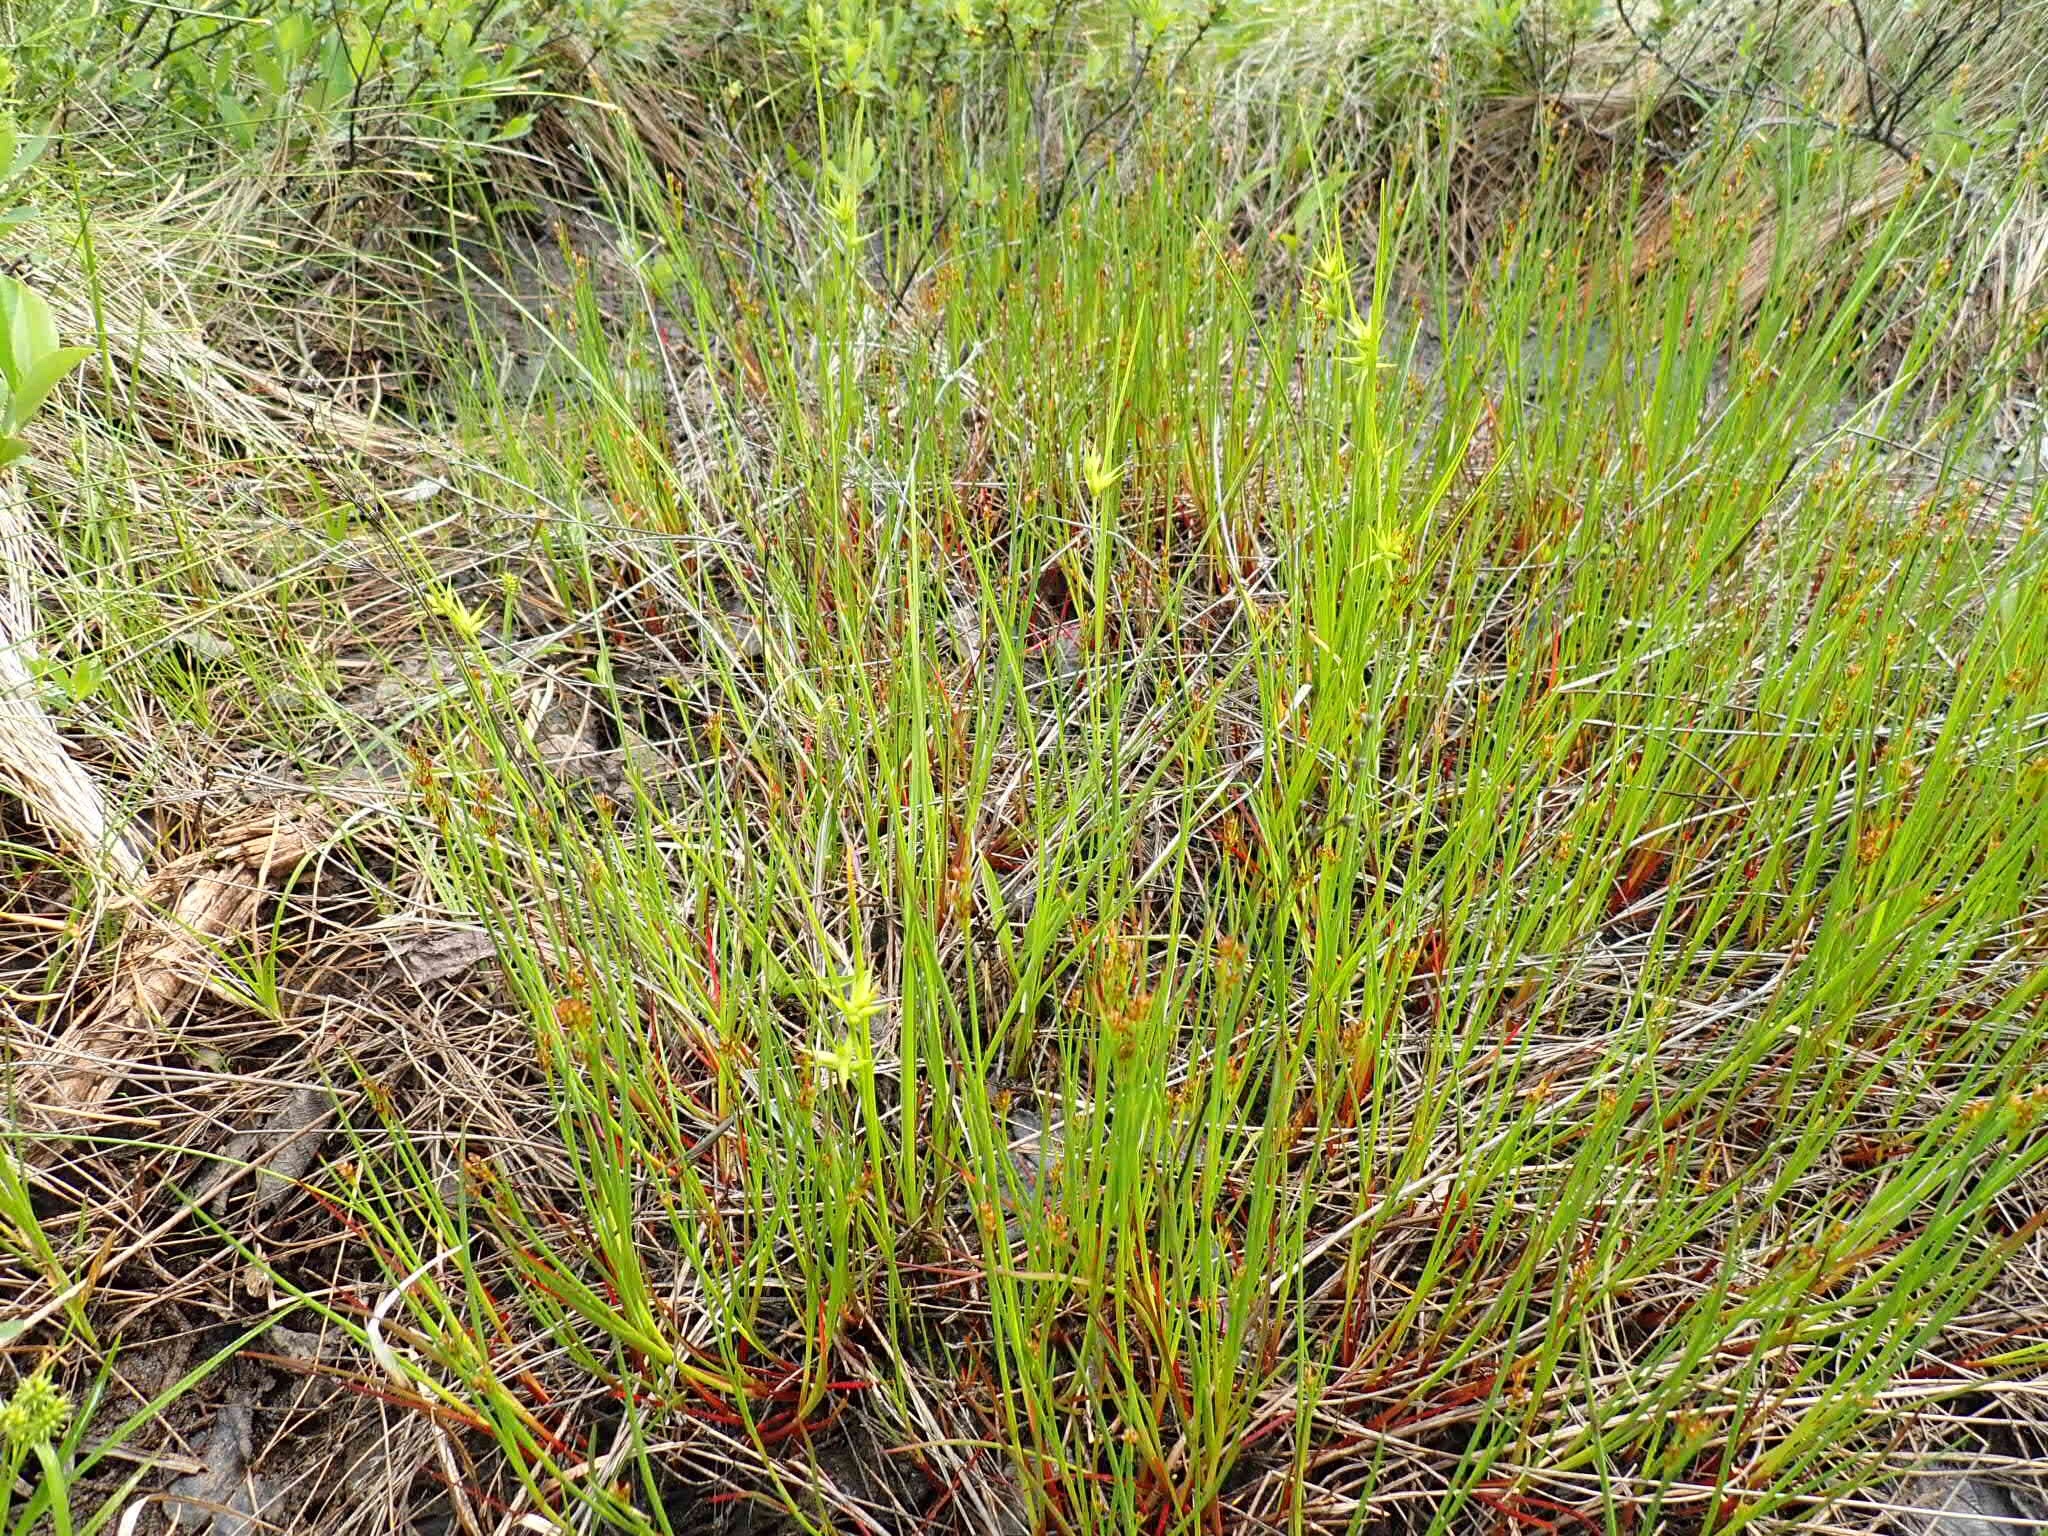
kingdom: Plantae
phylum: Tracheophyta
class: Liliopsida
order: Poales
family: Cyperaceae
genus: Carex
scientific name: Carex michauxiana
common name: Michaux's sedge
